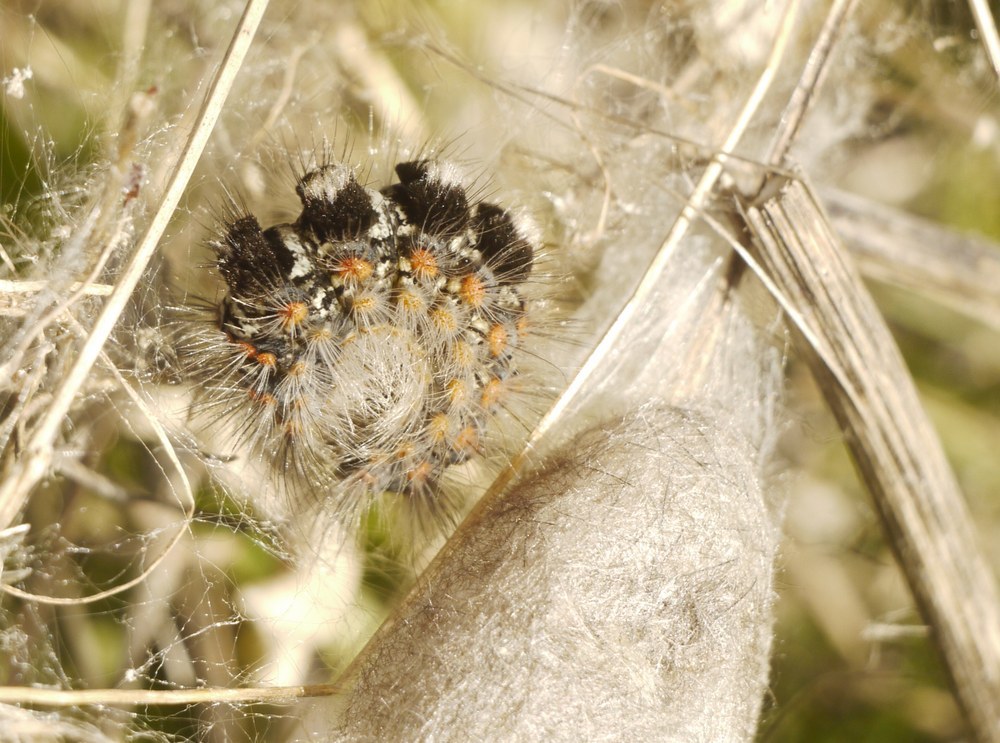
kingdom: Animalia
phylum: Arthropoda
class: Insecta
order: Lepidoptera
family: Erebidae
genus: Orgyia
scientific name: Orgyia dubia
